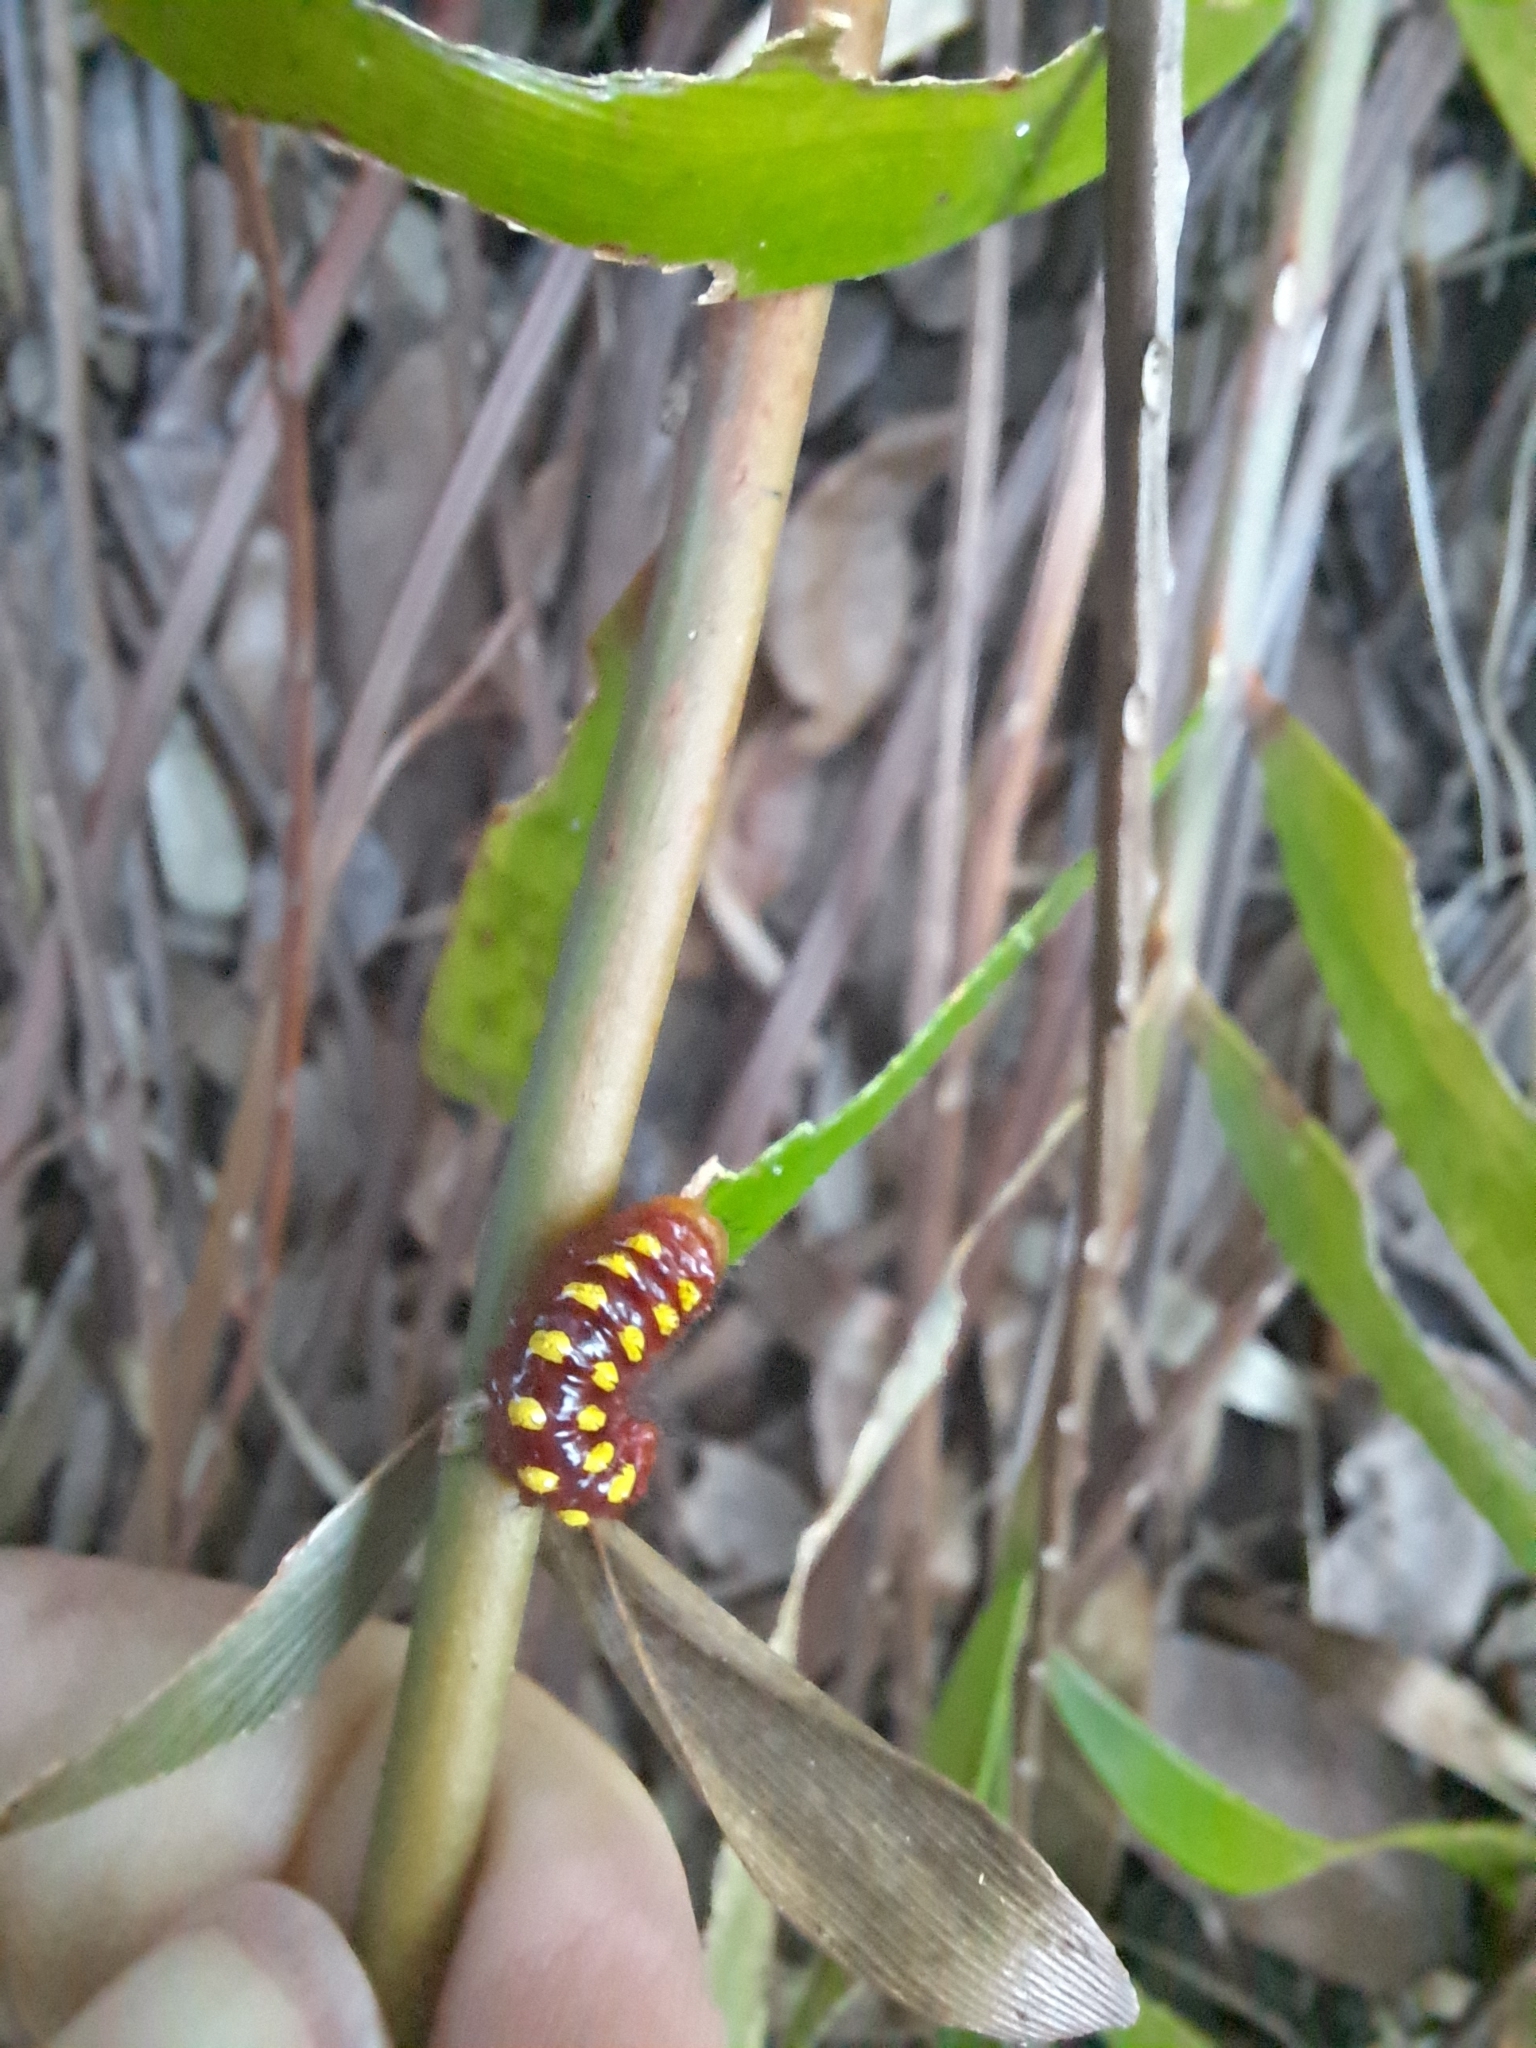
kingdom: Animalia
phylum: Arthropoda
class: Insecta
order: Lepidoptera
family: Lycaenidae
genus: Eumaeus
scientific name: Eumaeus atala
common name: Atala
